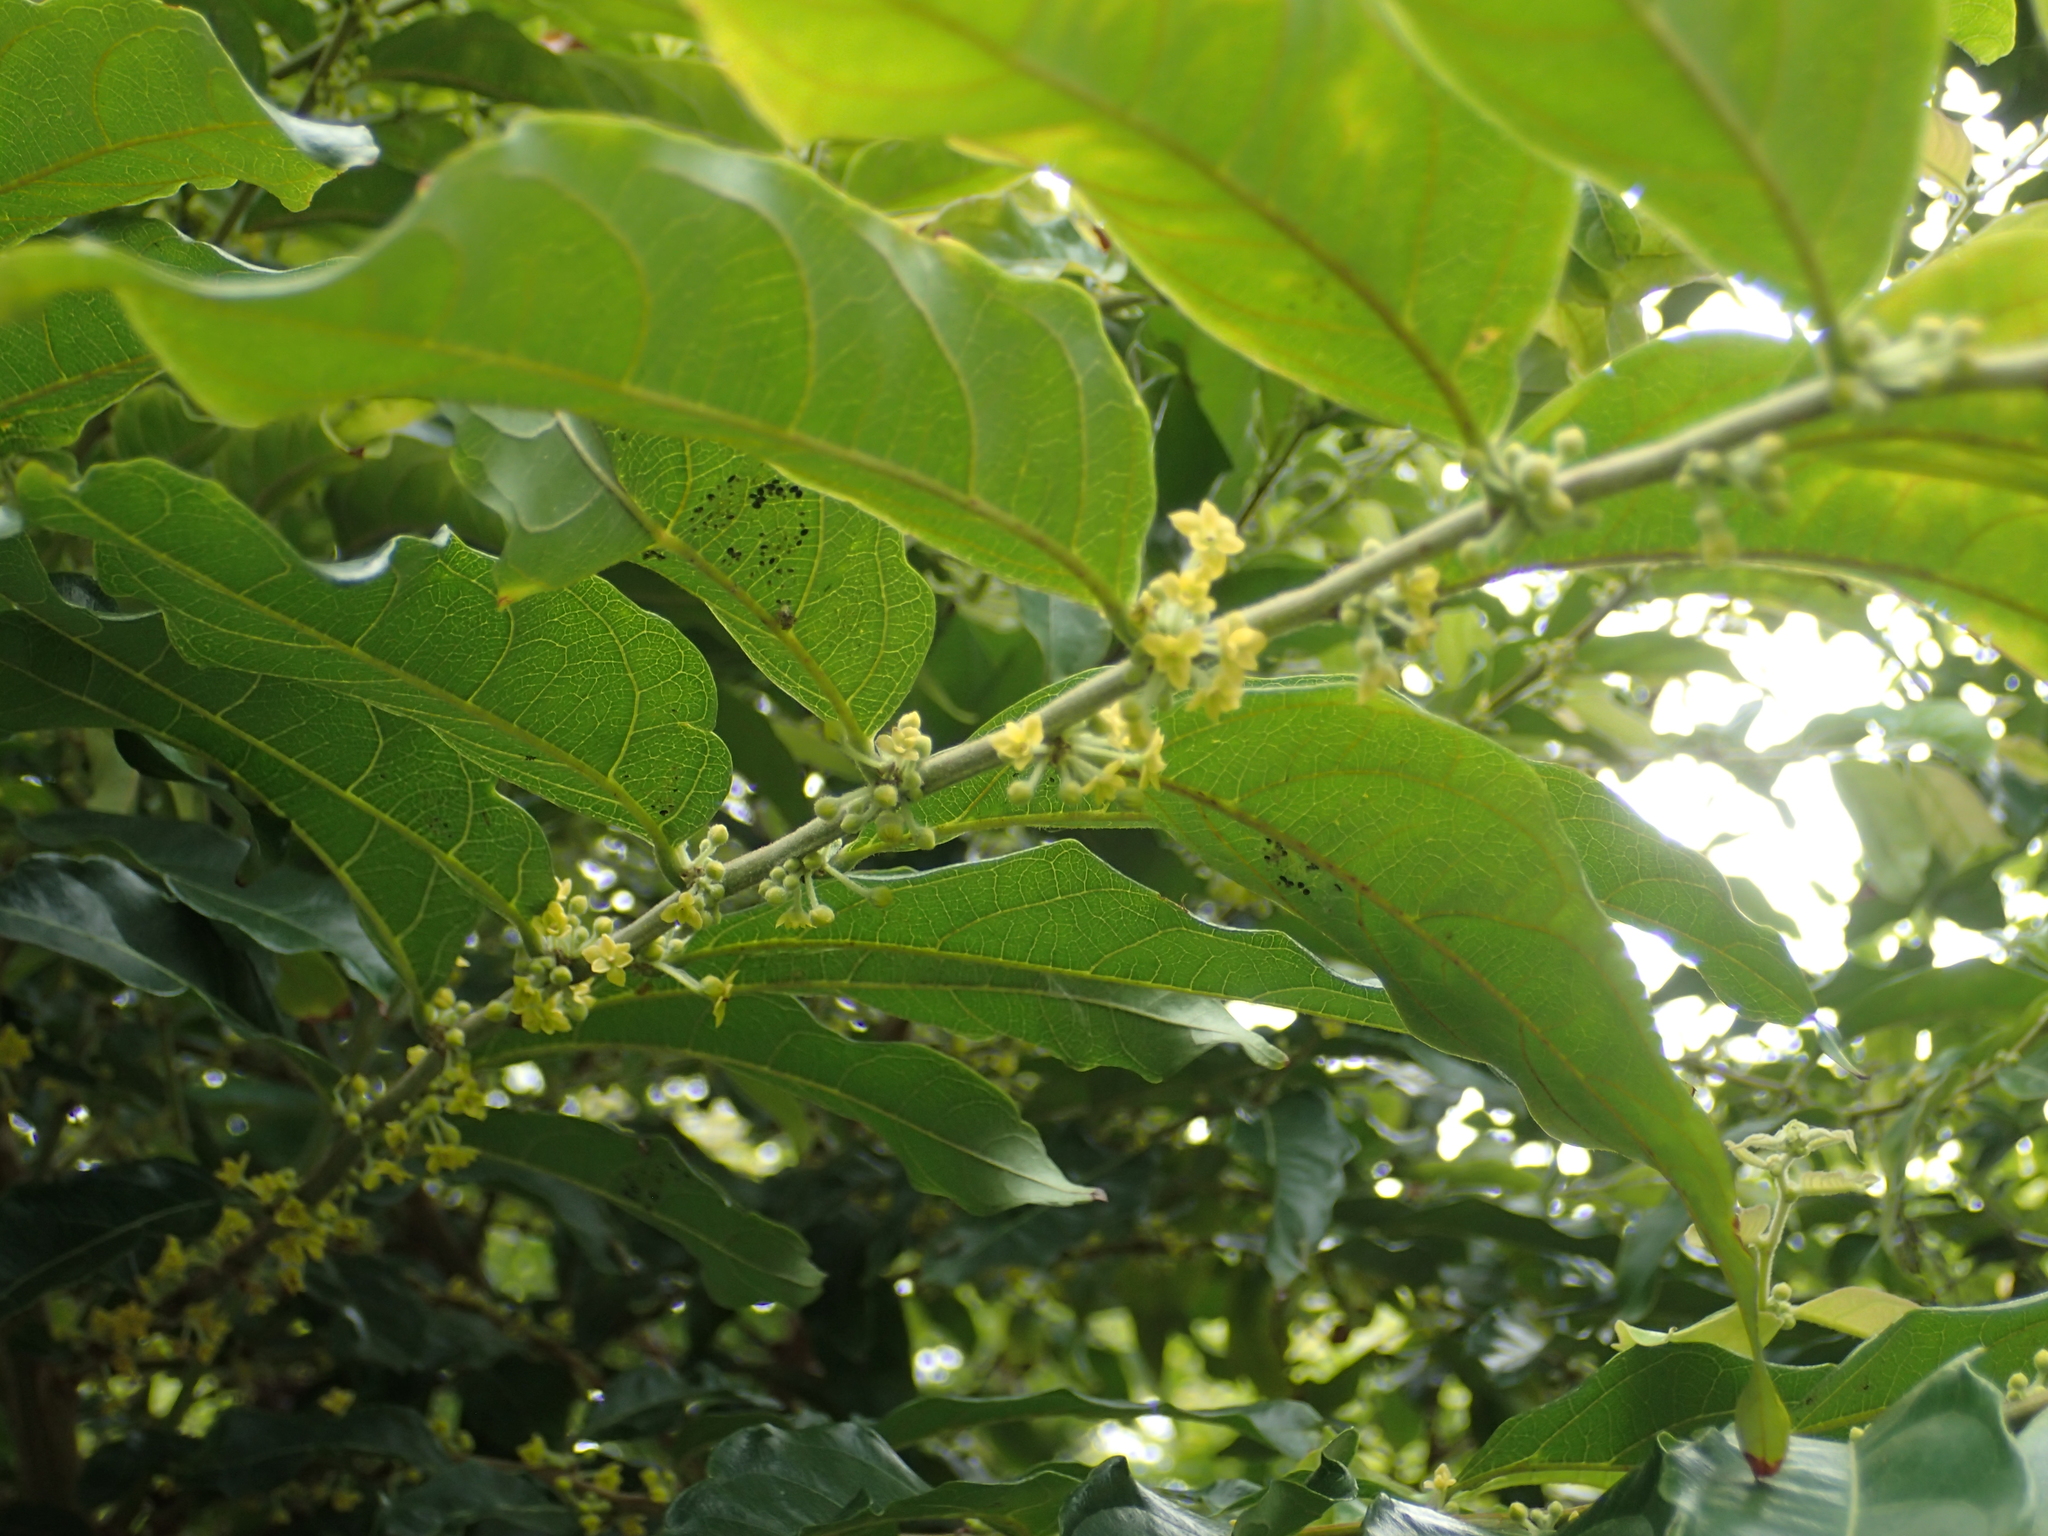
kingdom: Plantae
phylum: Tracheophyta
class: Magnoliopsida
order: Malpighiales
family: Phyllanthaceae
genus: Glochidion
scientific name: Glochidion philippicum
